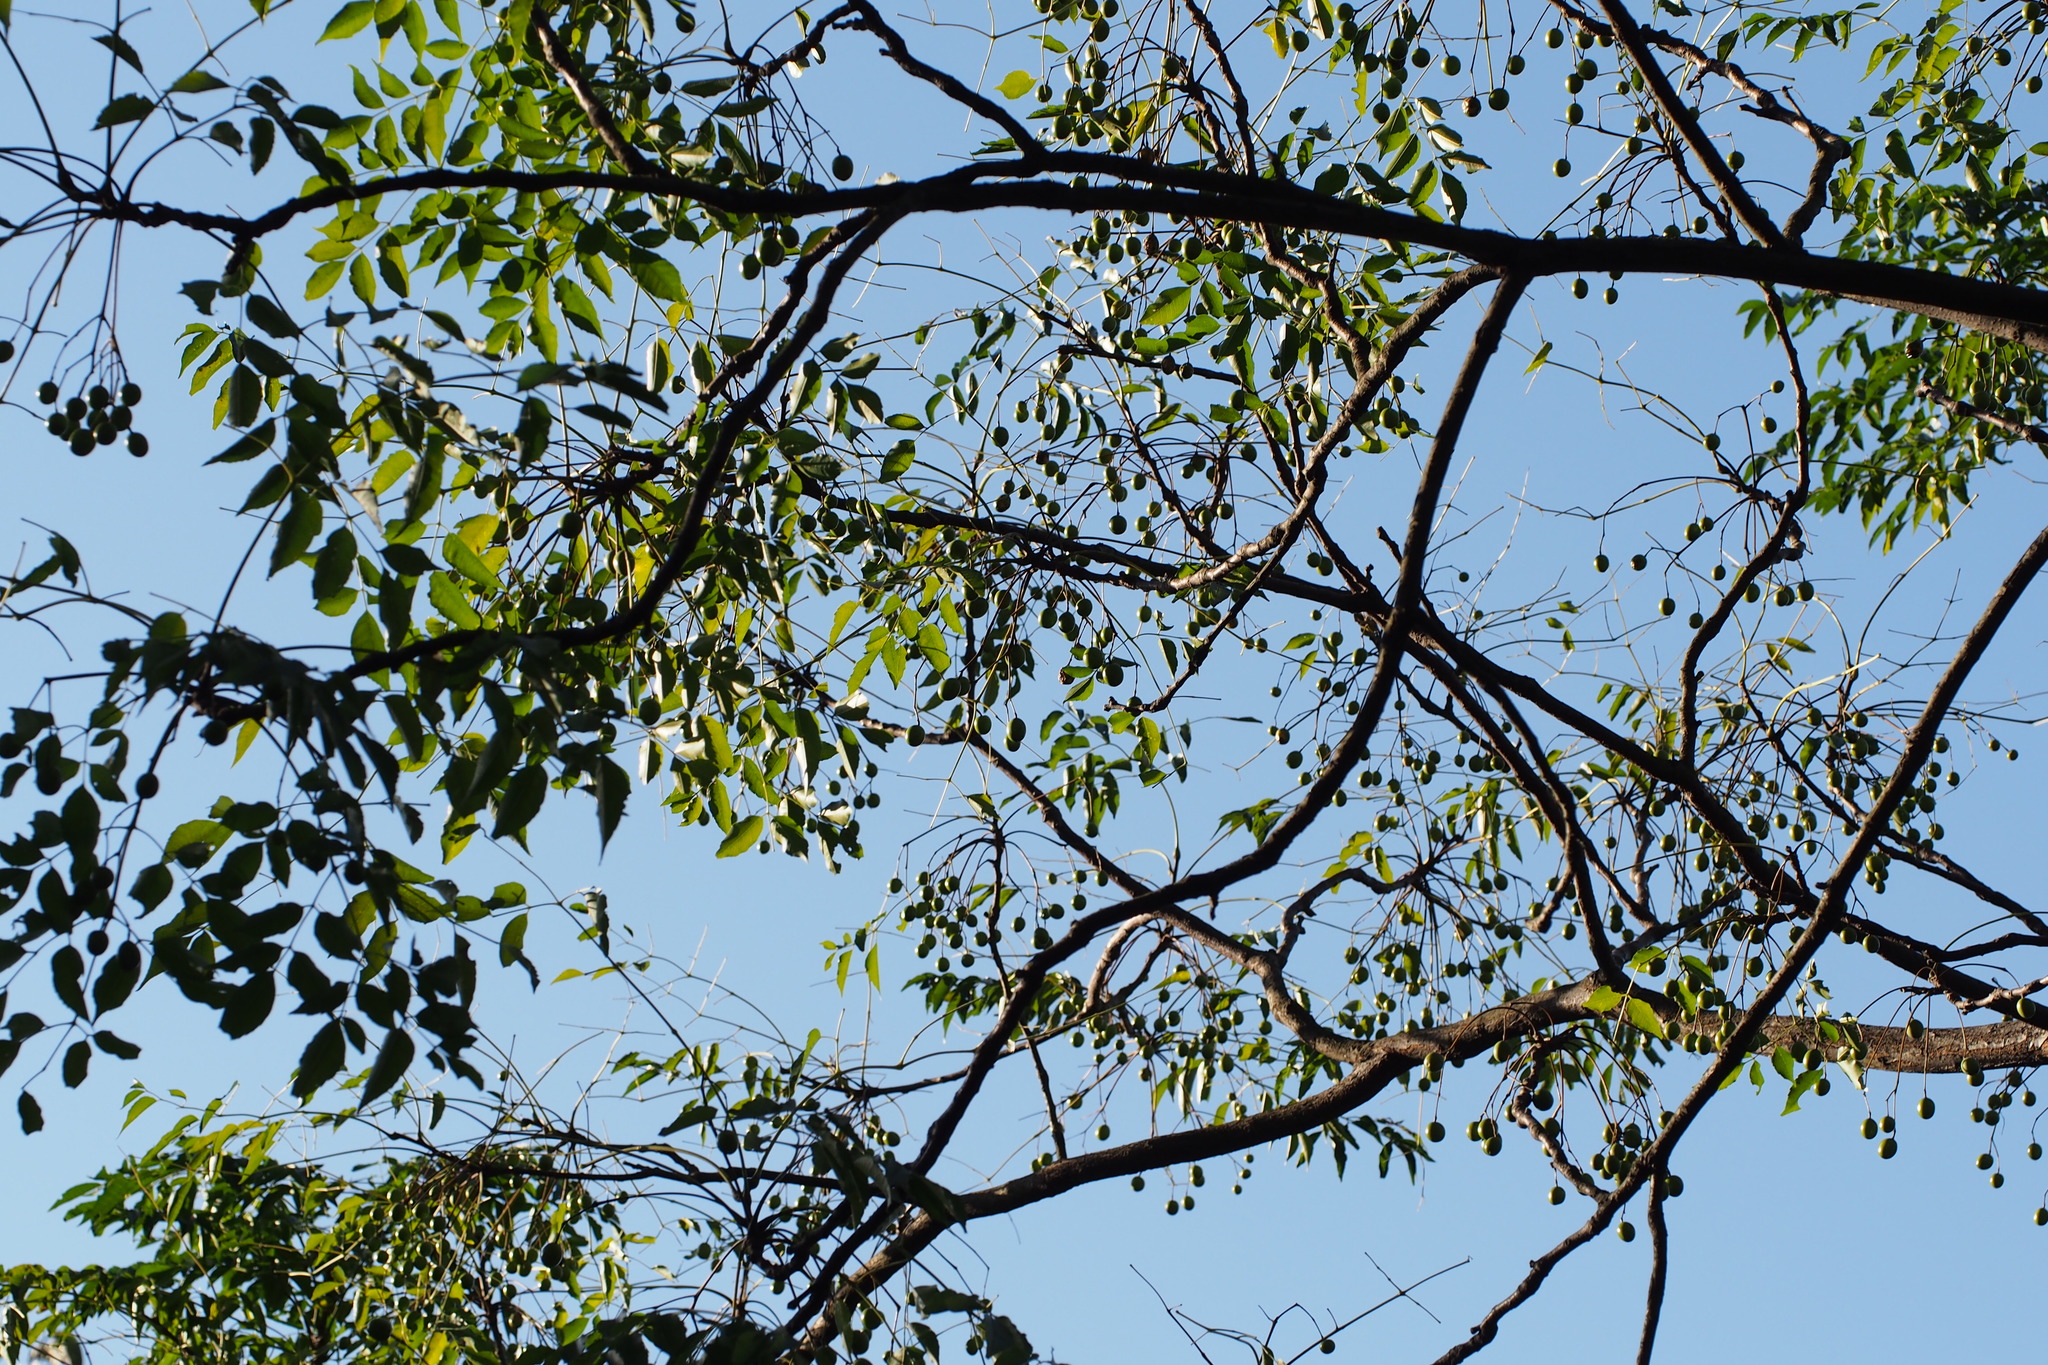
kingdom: Plantae
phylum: Tracheophyta
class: Magnoliopsida
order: Sapindales
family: Meliaceae
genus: Melia
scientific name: Melia azedarach
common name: Chinaberrytree
